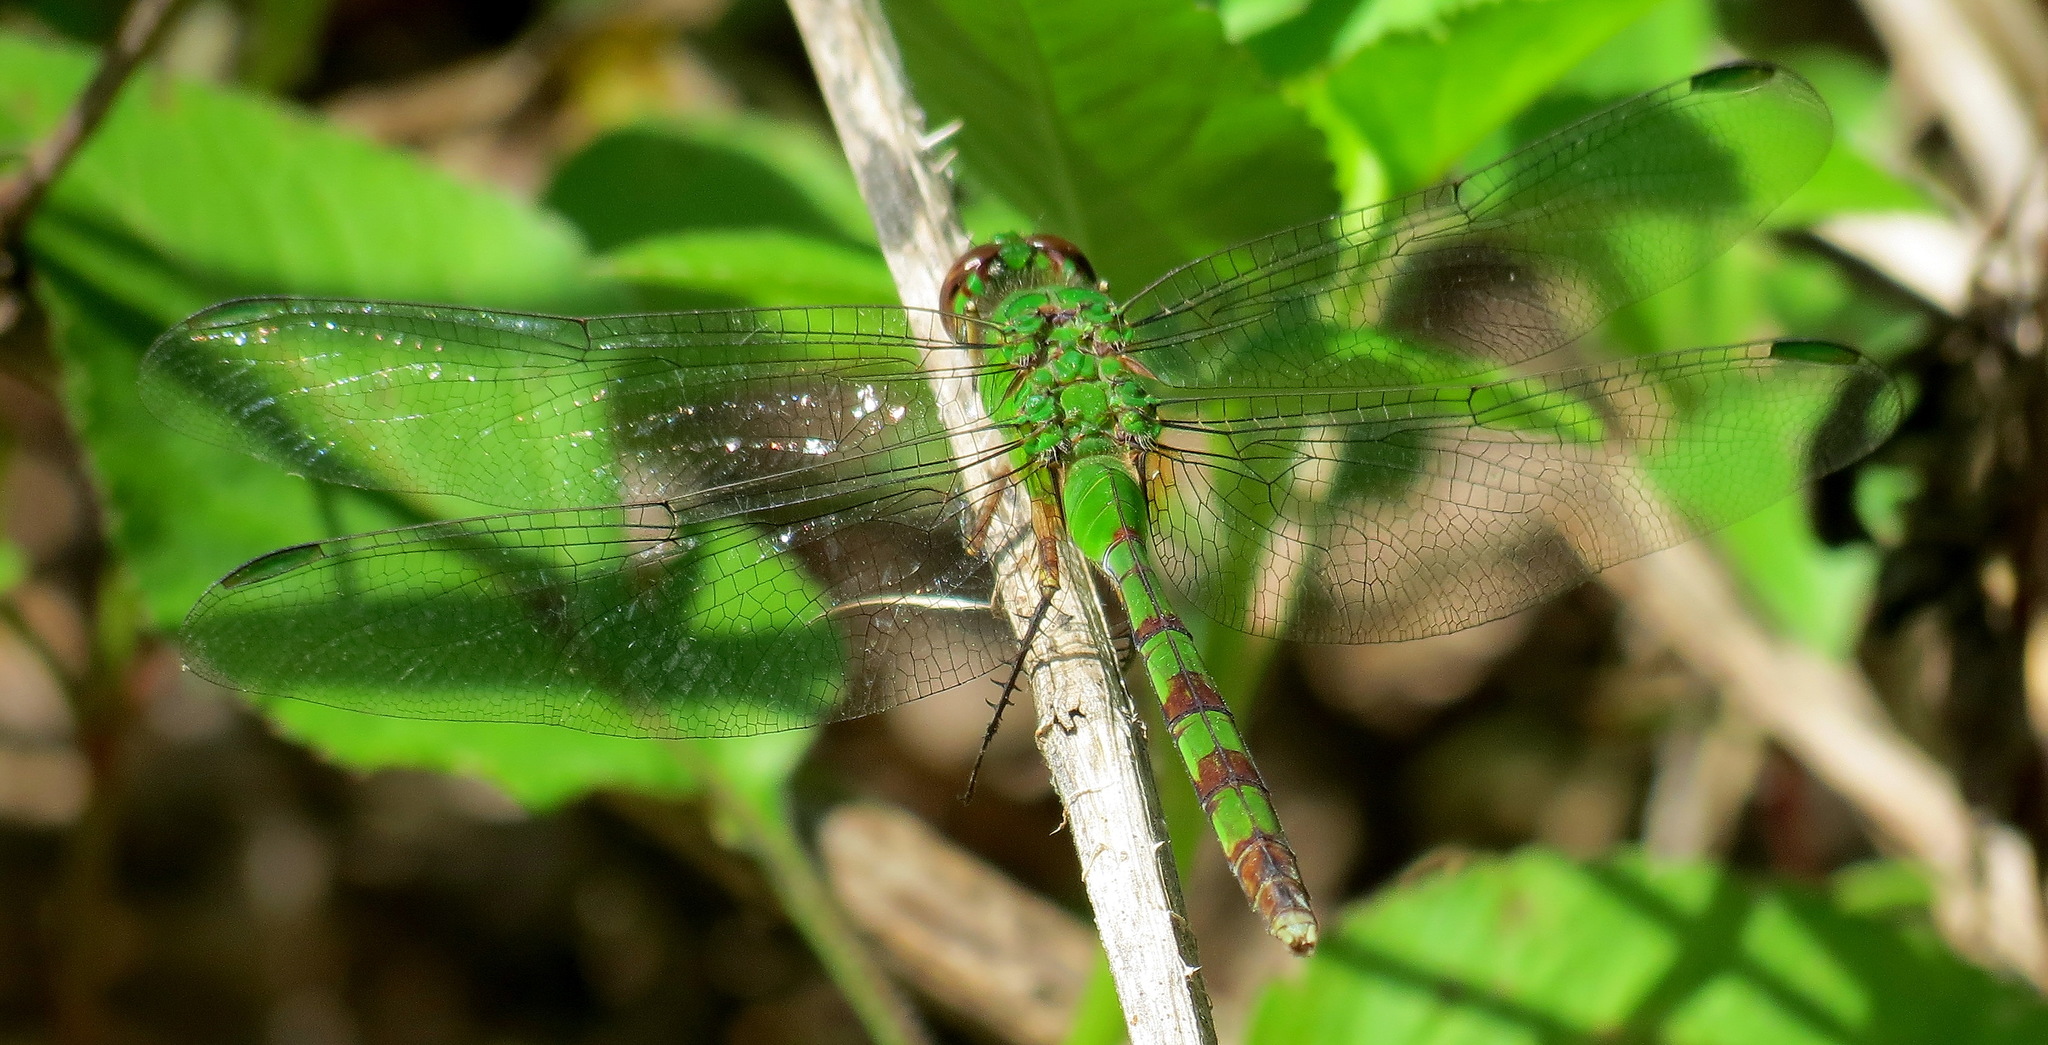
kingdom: Animalia
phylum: Arthropoda
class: Insecta
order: Odonata
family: Libellulidae
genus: Erythemis
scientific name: Erythemis vesiculosa
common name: Great pondhawk
